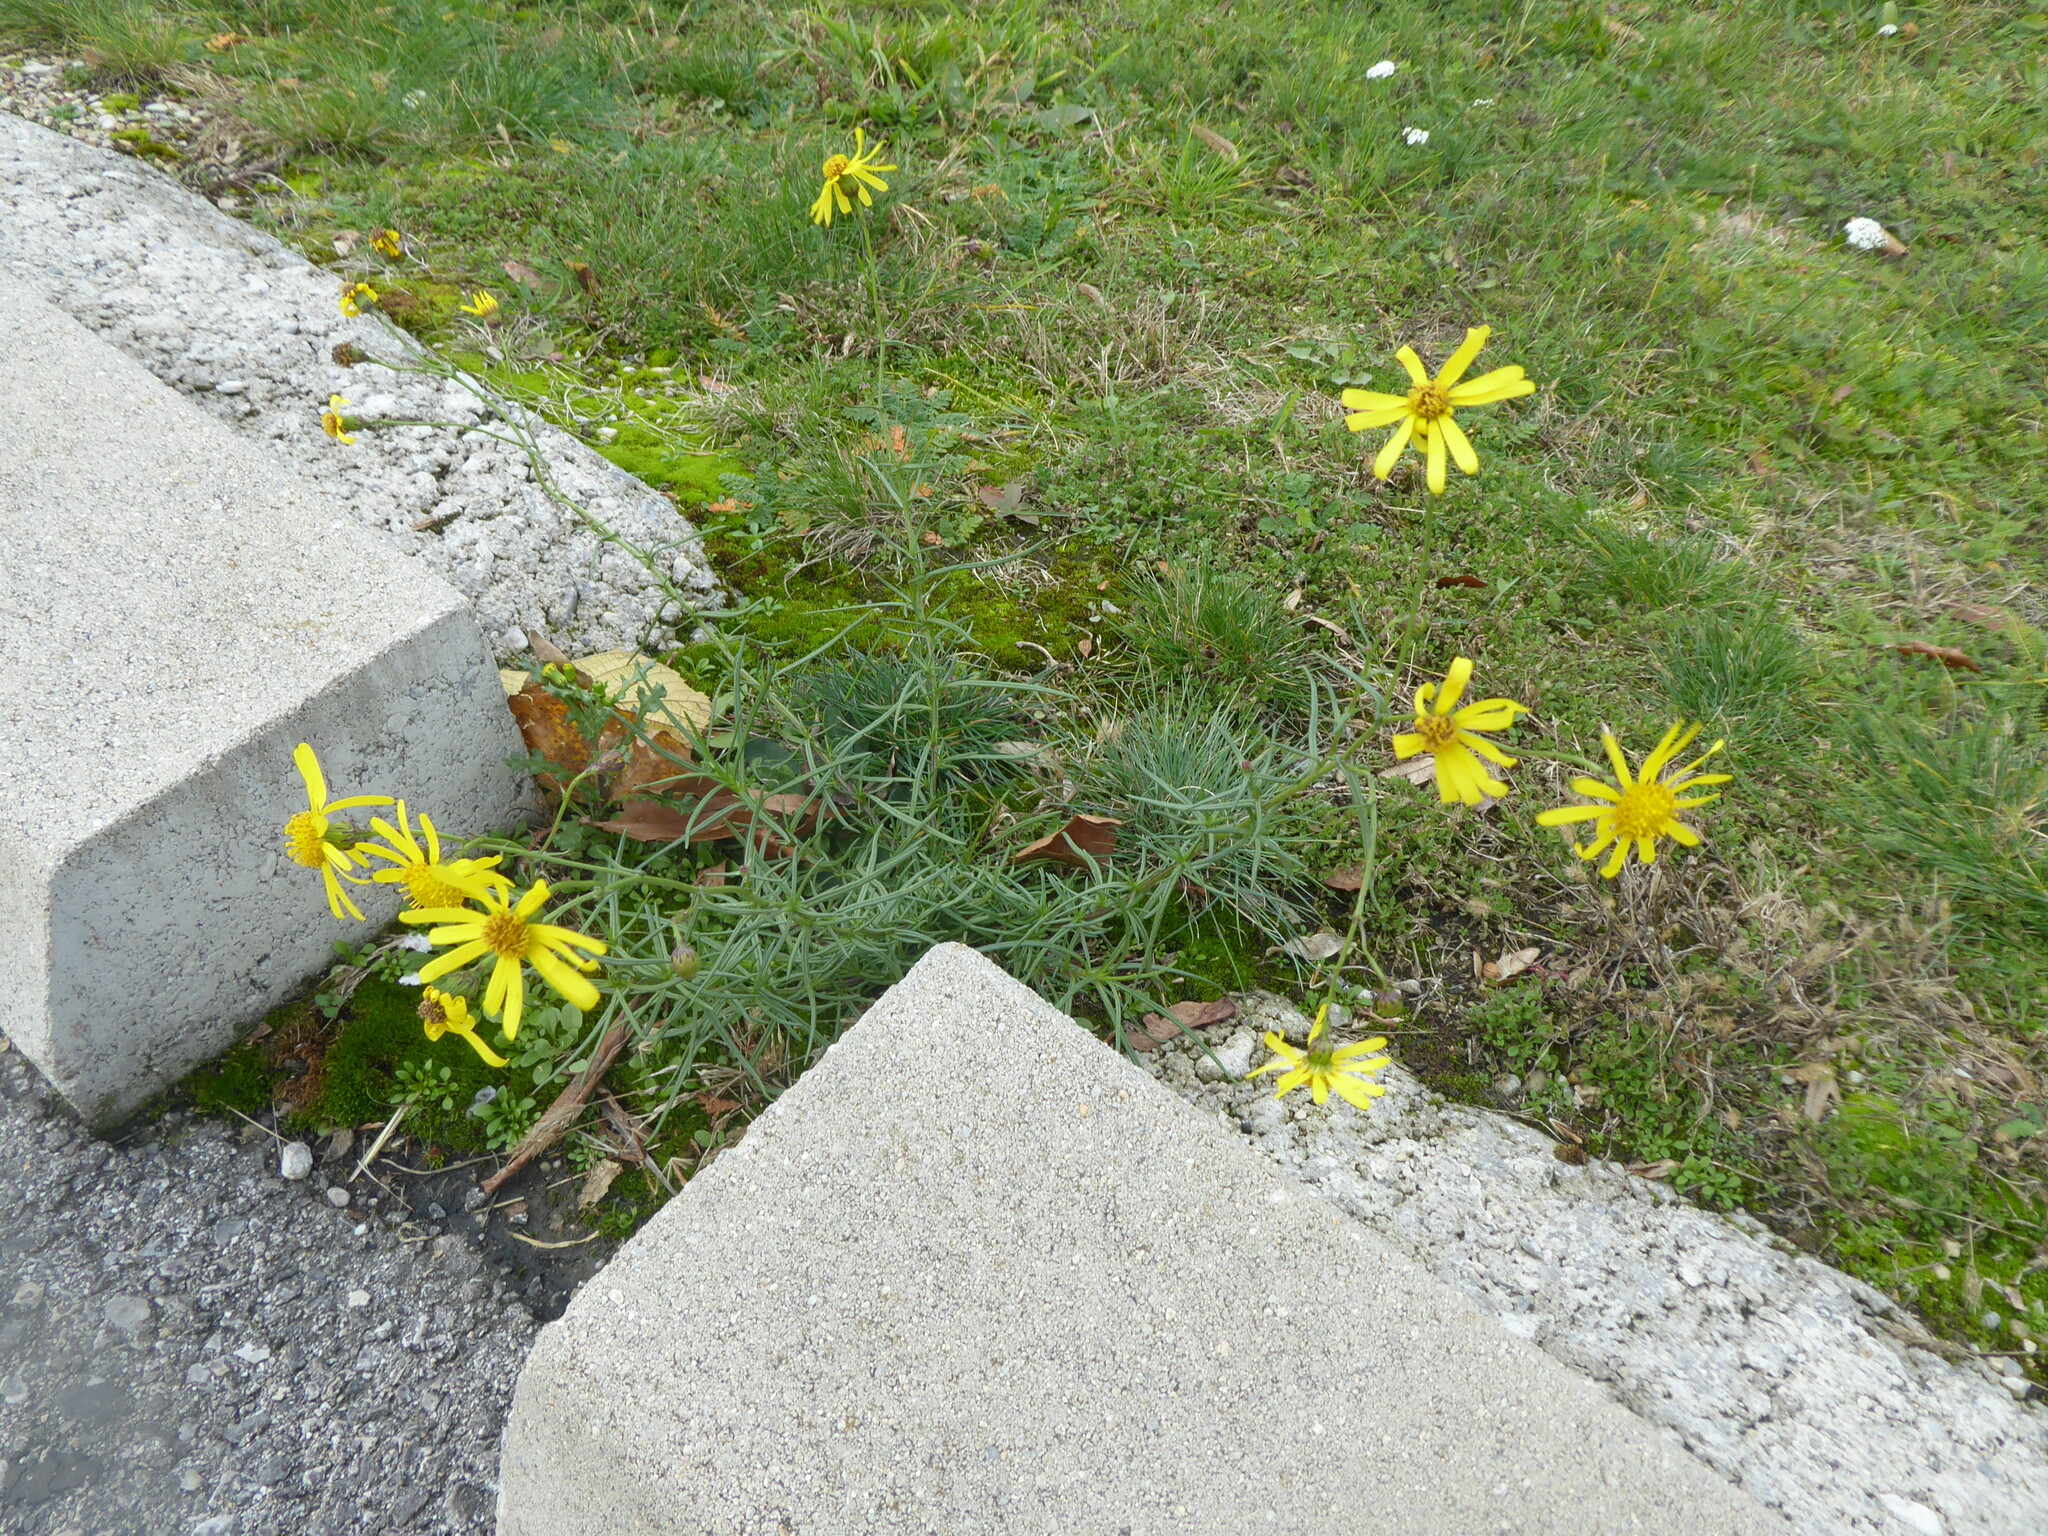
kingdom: Plantae
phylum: Tracheophyta
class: Magnoliopsida
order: Asterales
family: Asteraceae
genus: Senecio
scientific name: Senecio inaequidens
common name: Narrow-leaved ragwort
